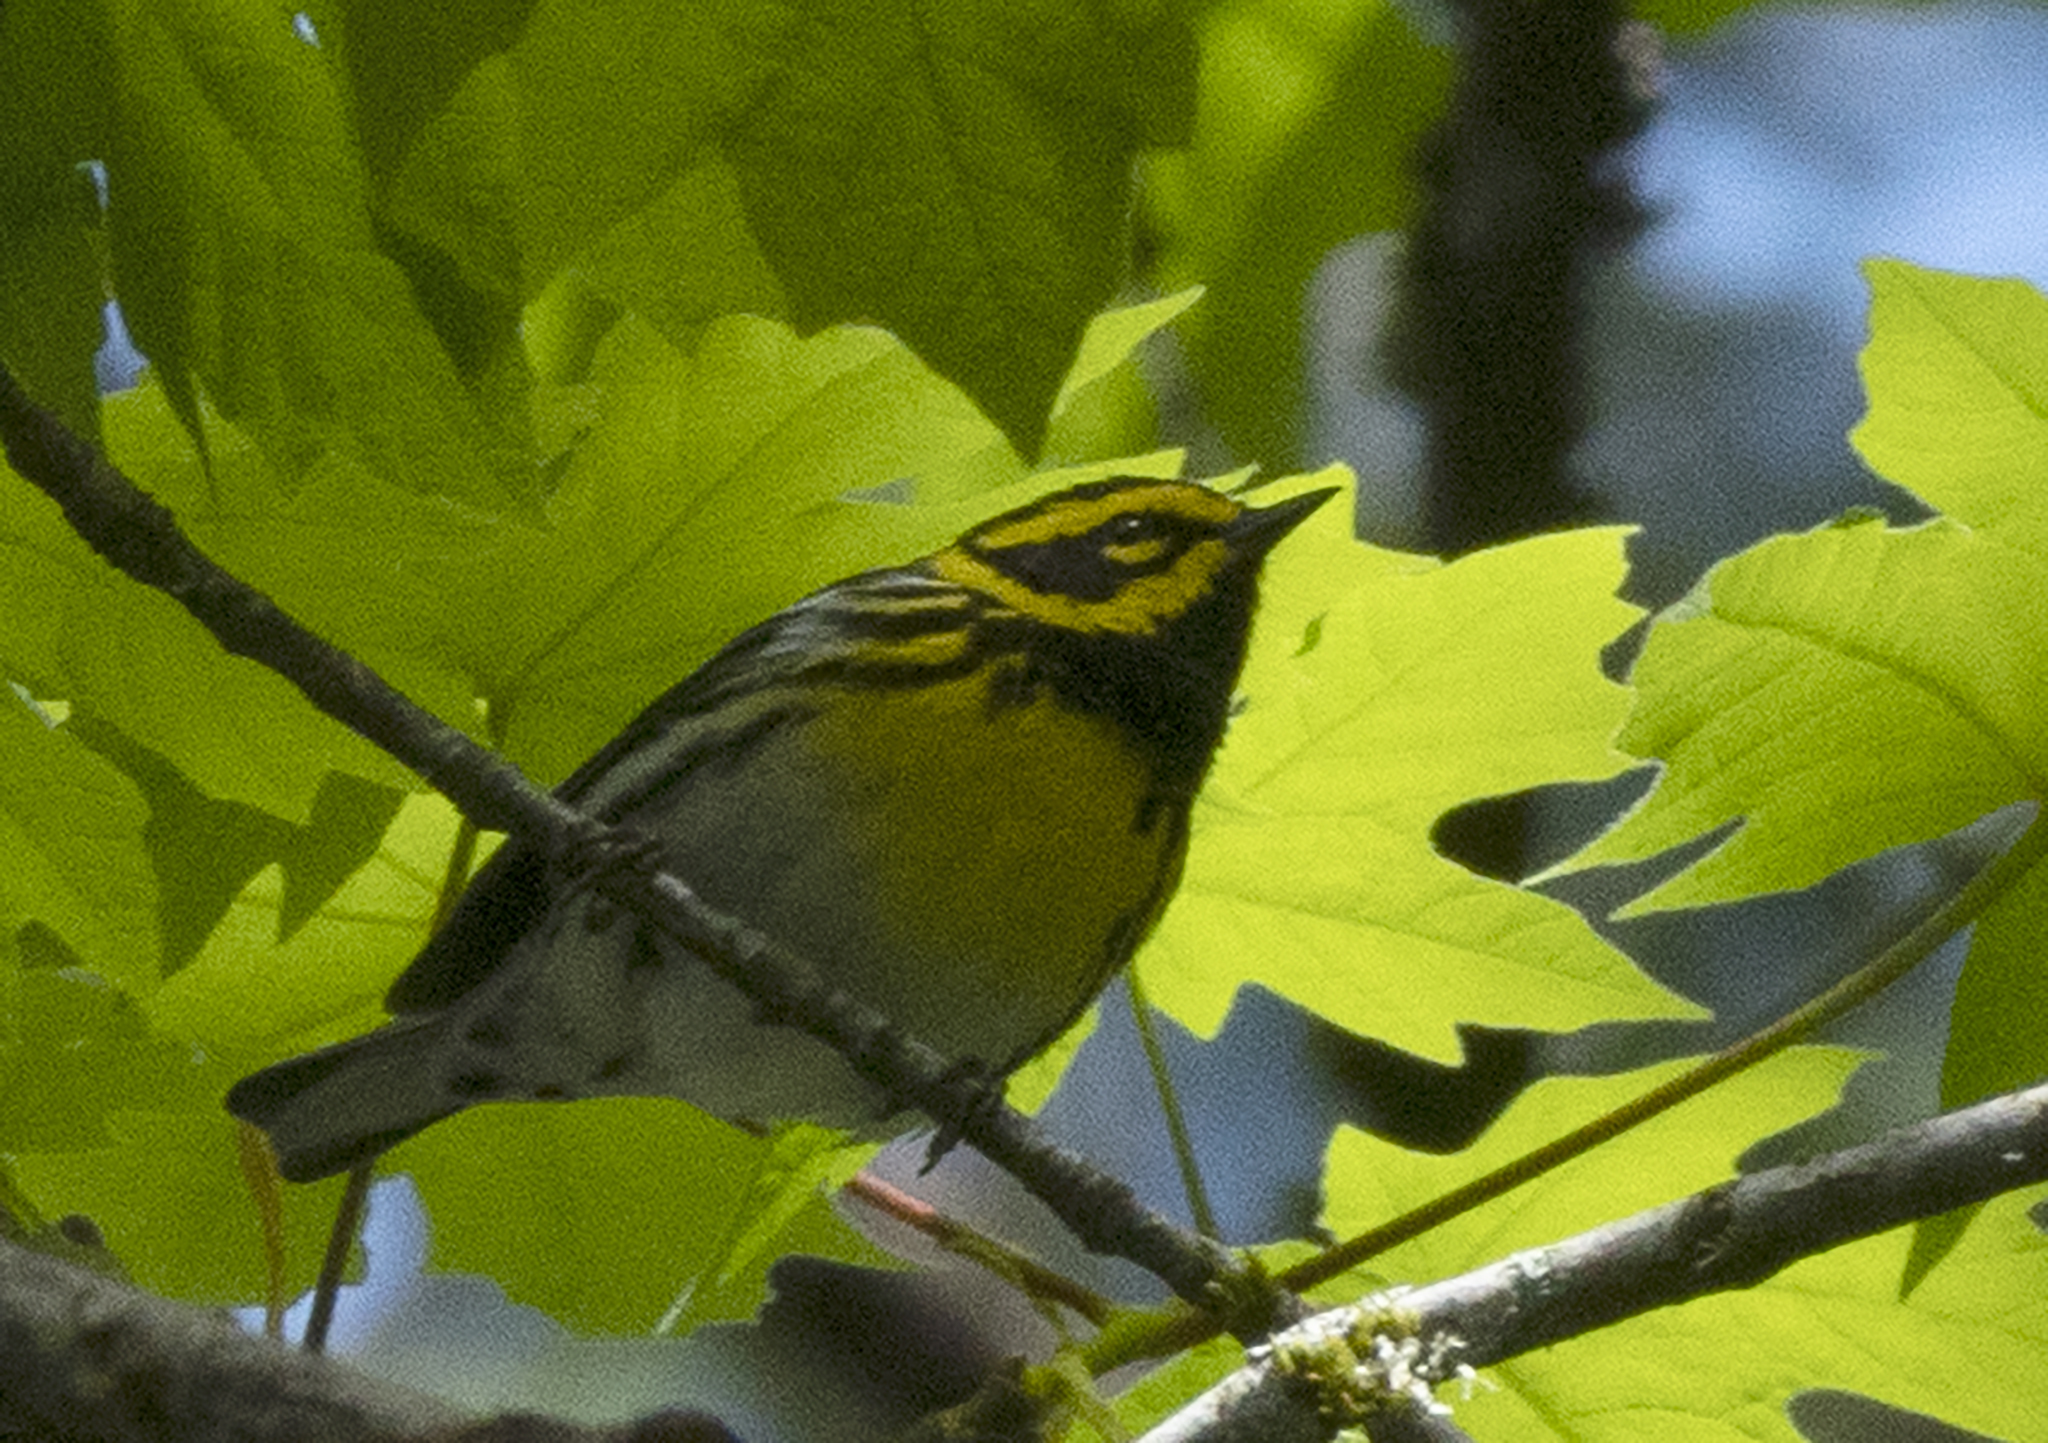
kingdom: Animalia
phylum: Chordata
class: Aves
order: Passeriformes
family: Parulidae
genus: Setophaga
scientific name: Setophaga townsendi
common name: Townsend's warbler
